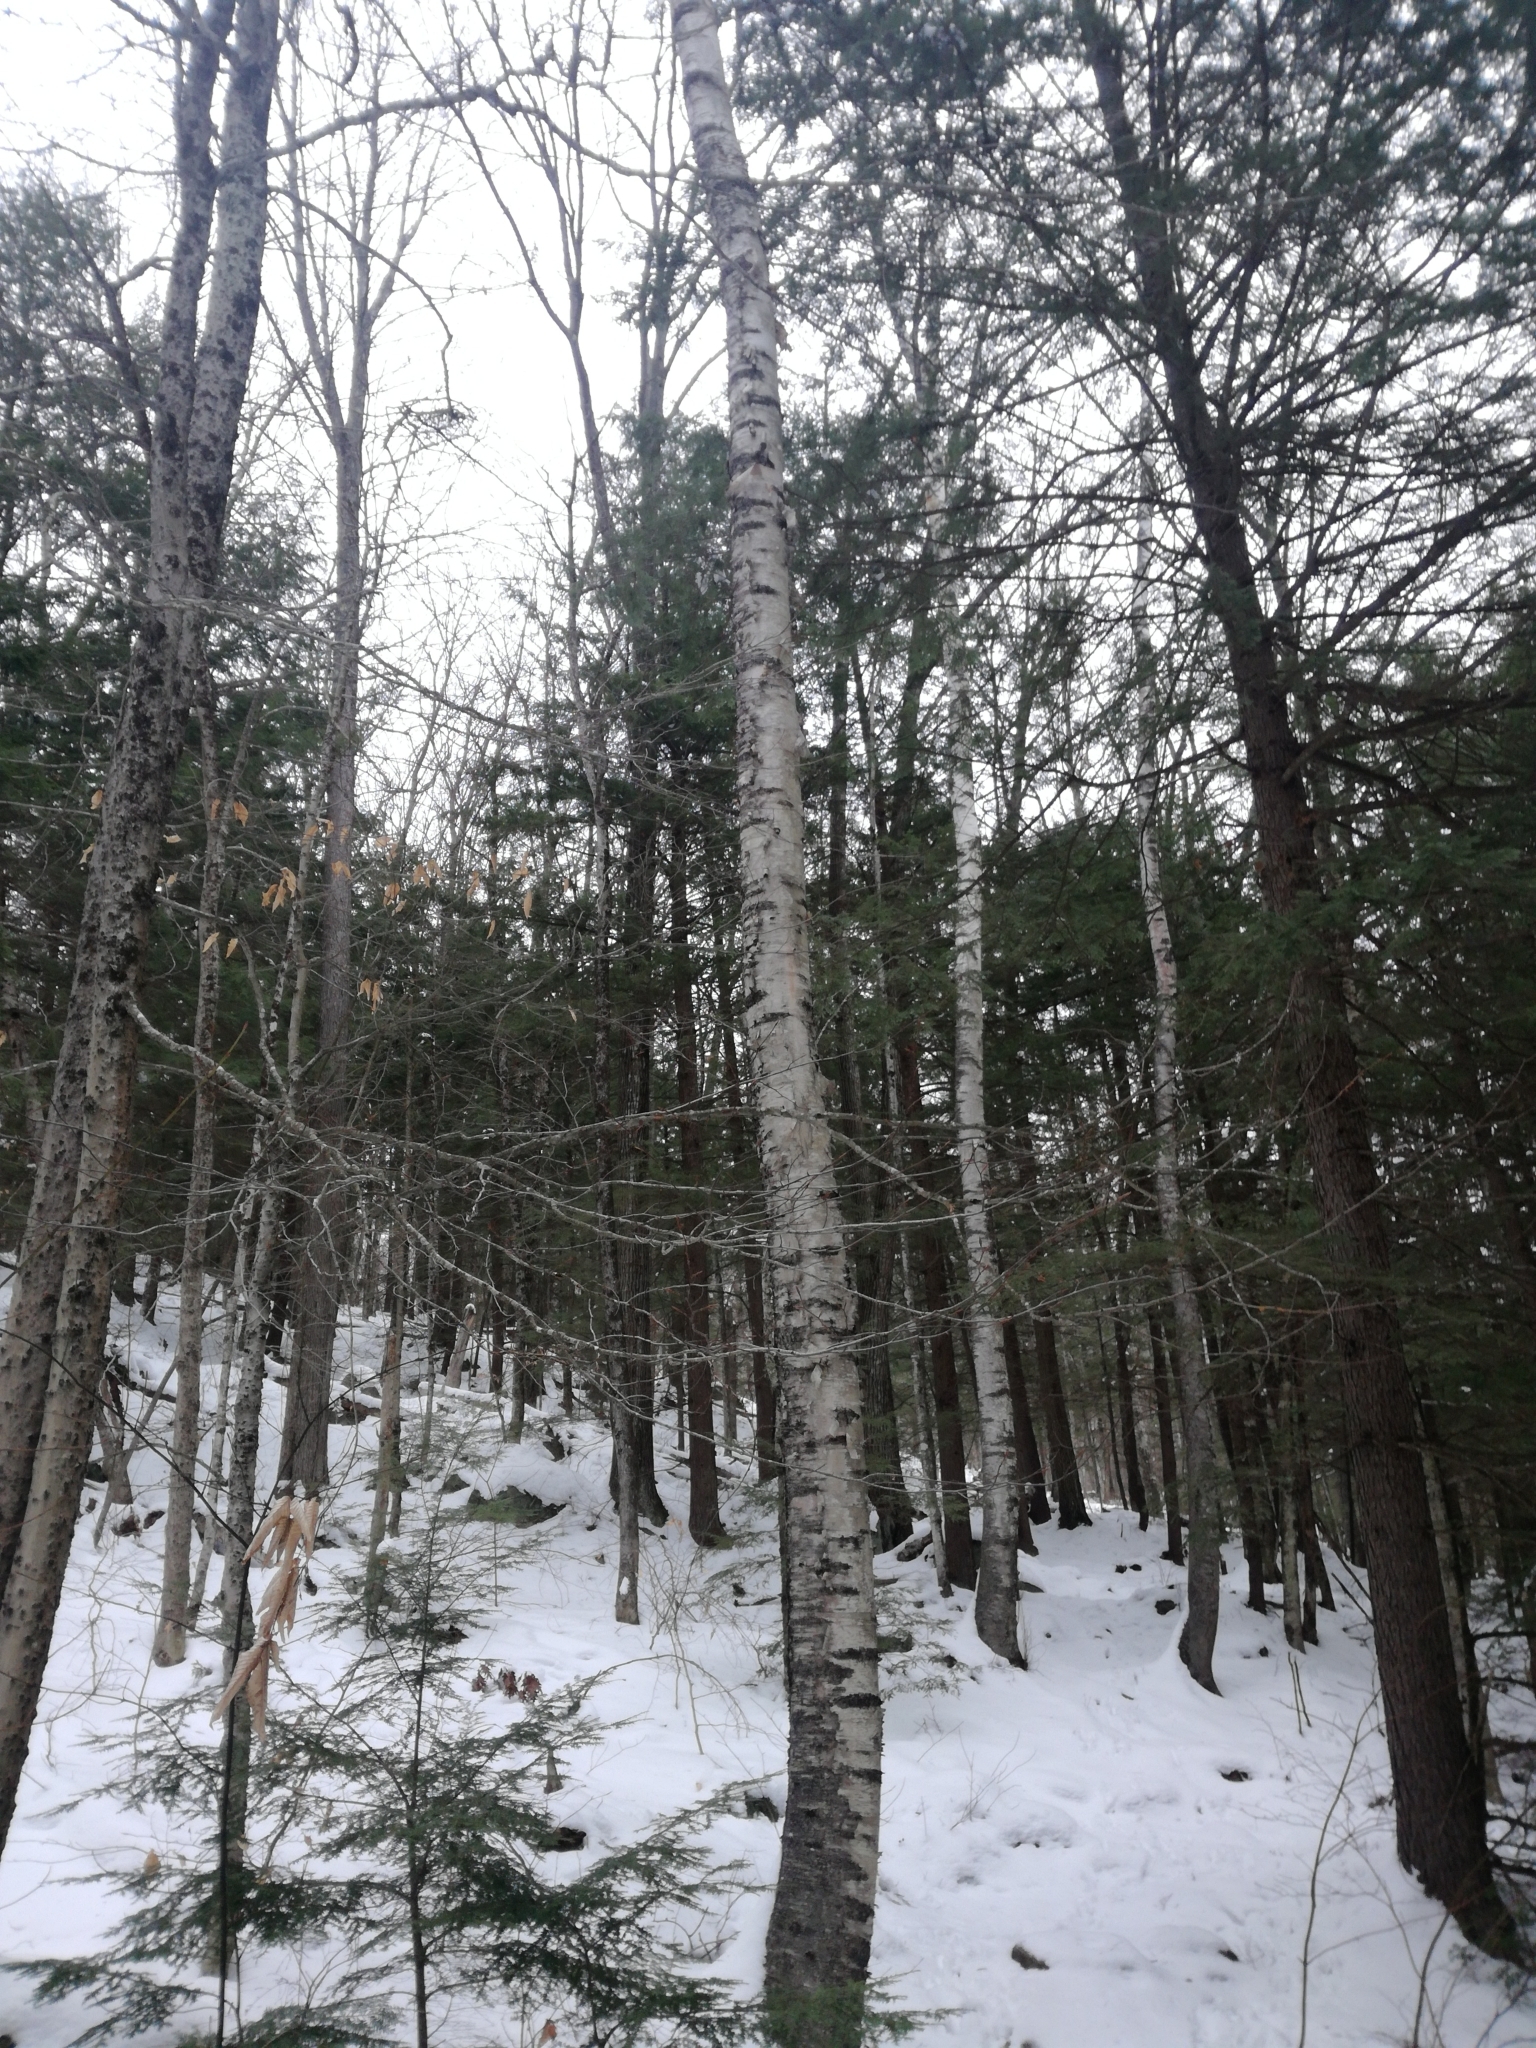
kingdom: Plantae
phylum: Tracheophyta
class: Magnoliopsida
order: Fagales
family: Betulaceae
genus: Betula
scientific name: Betula papyrifera
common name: Paper birch
